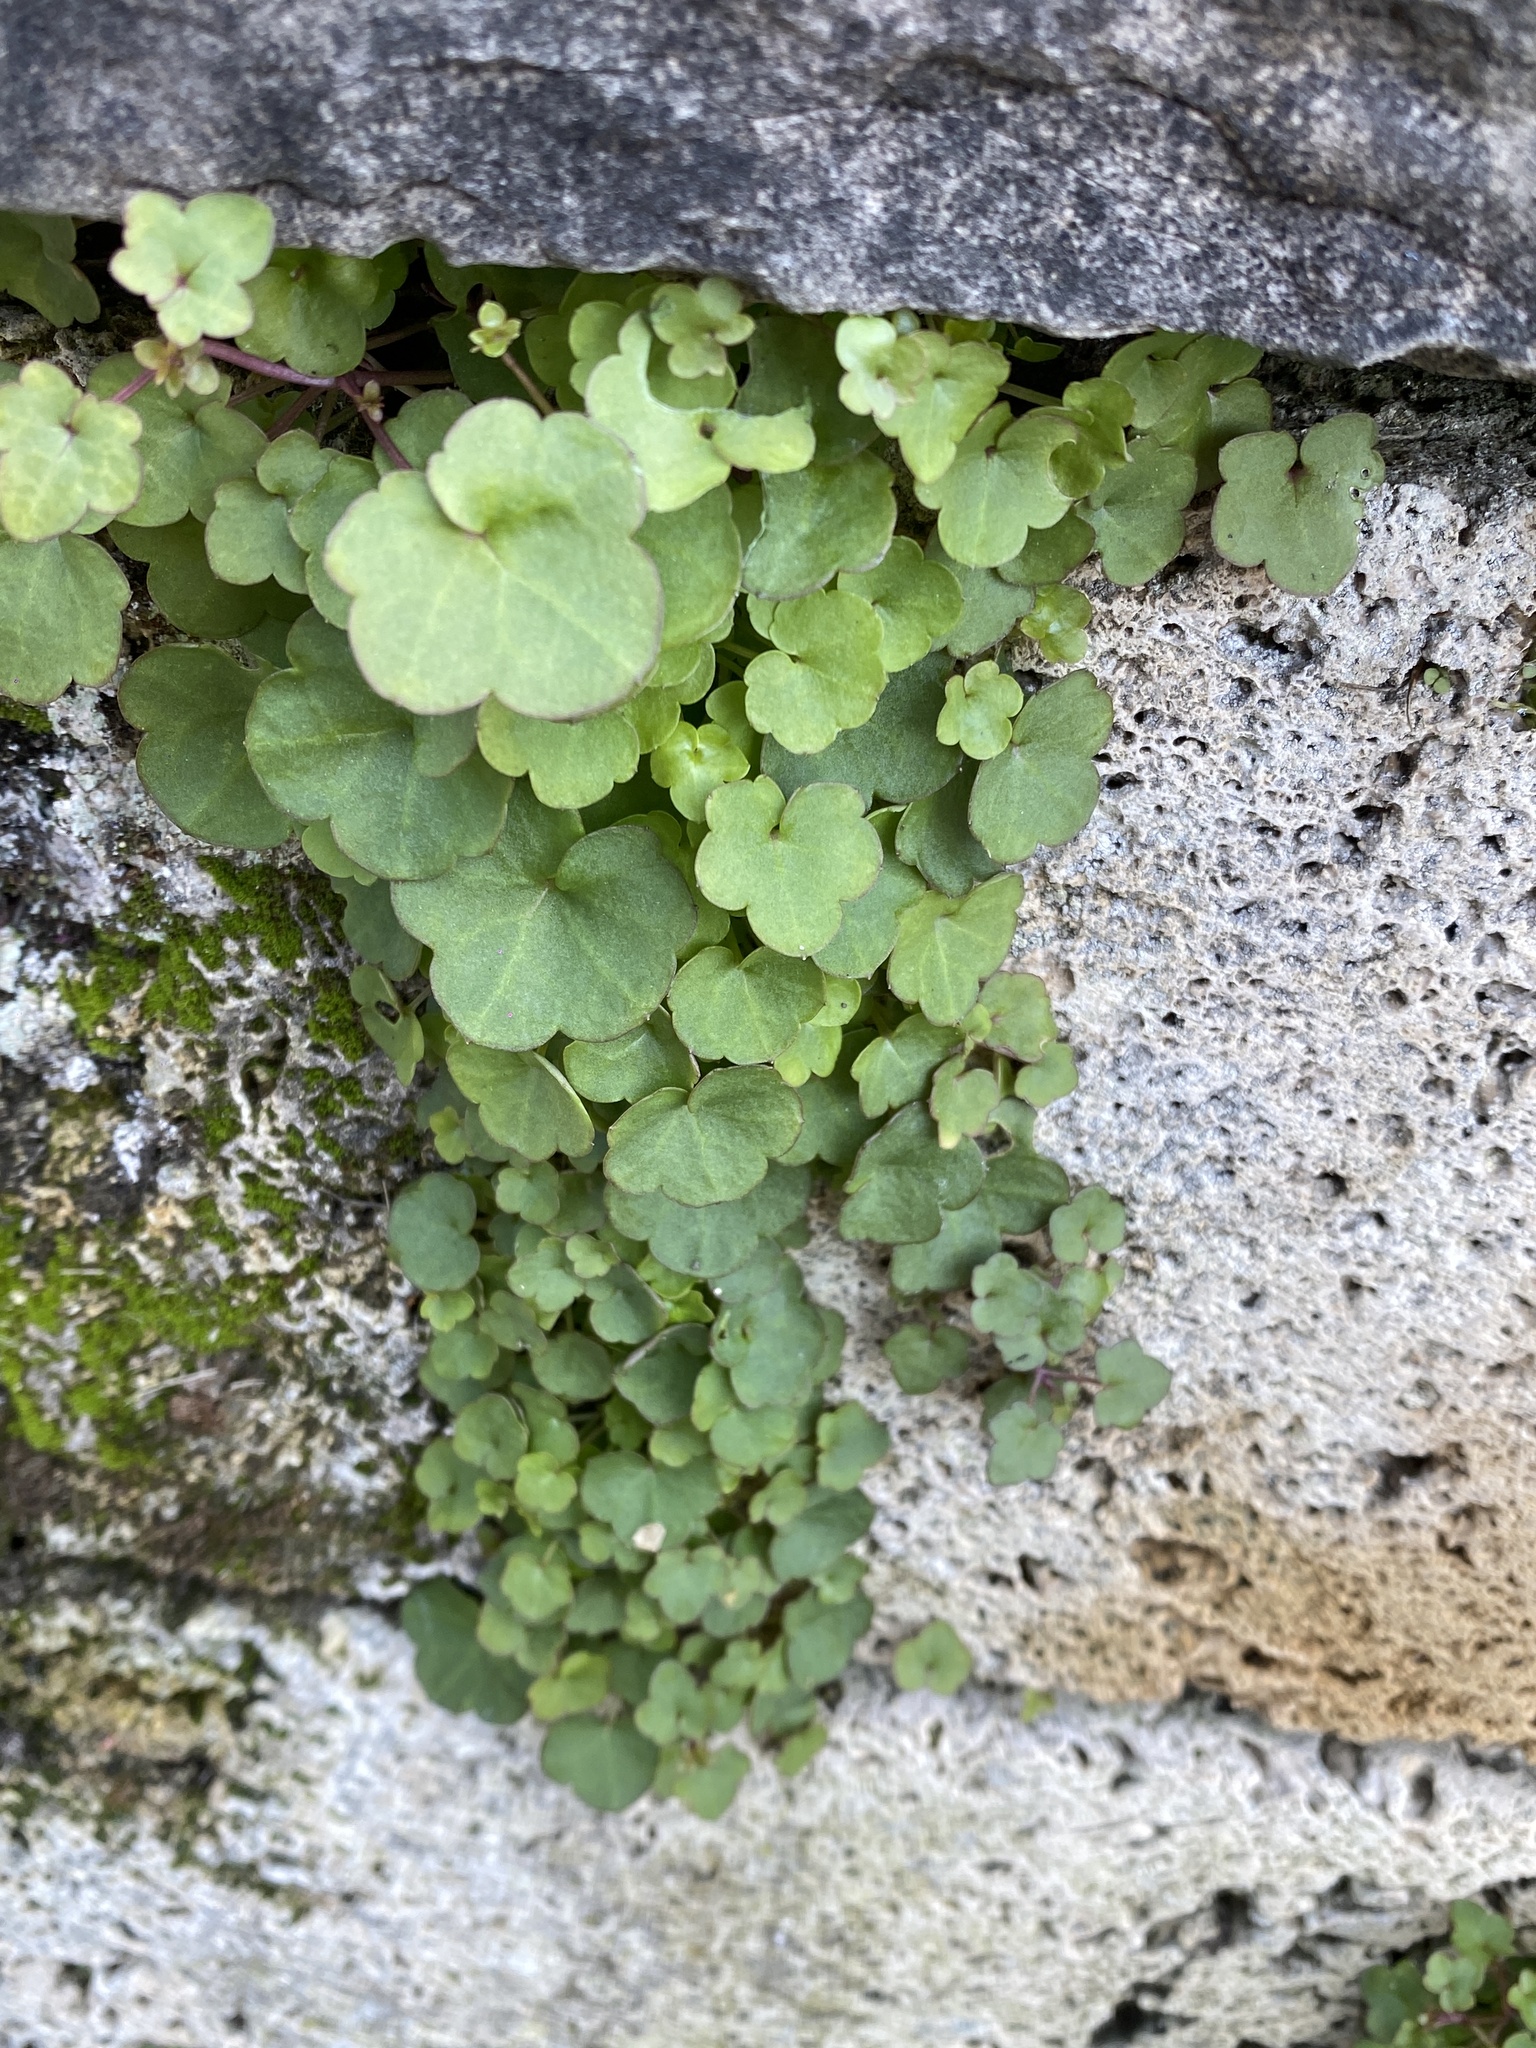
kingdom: Plantae
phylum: Tracheophyta
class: Magnoliopsida
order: Lamiales
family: Plantaginaceae
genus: Cymbalaria
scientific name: Cymbalaria muralis
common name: Ivy-leaved toadflax
